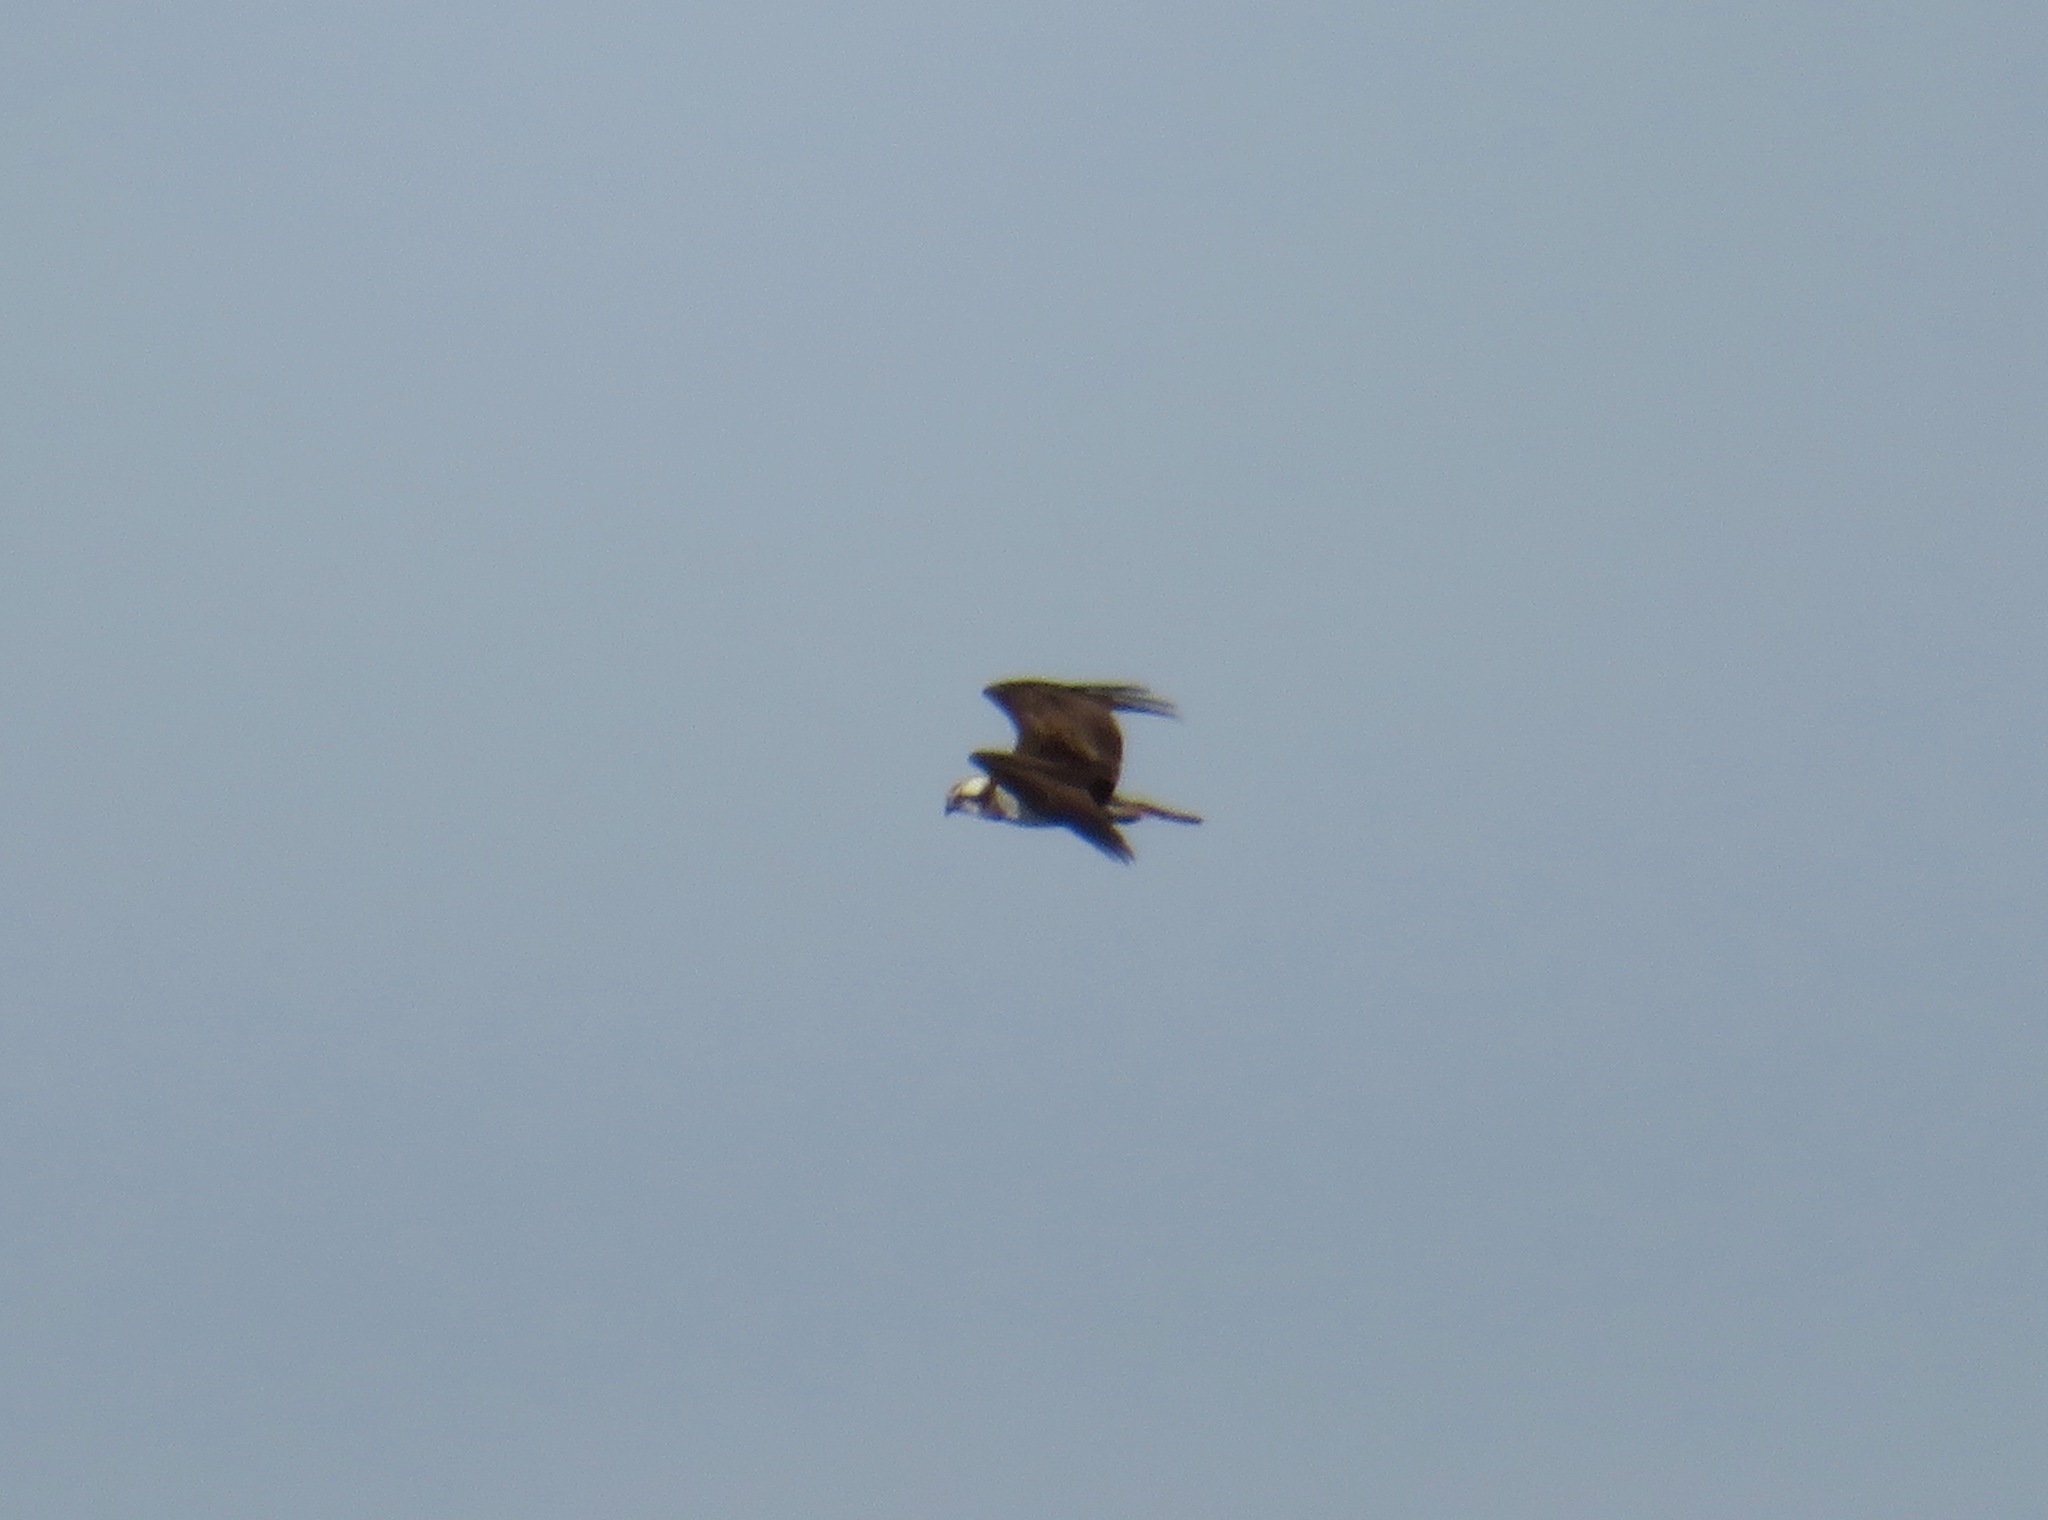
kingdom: Animalia
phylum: Chordata
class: Aves
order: Accipitriformes
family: Pandionidae
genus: Pandion
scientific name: Pandion haliaetus
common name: Osprey
